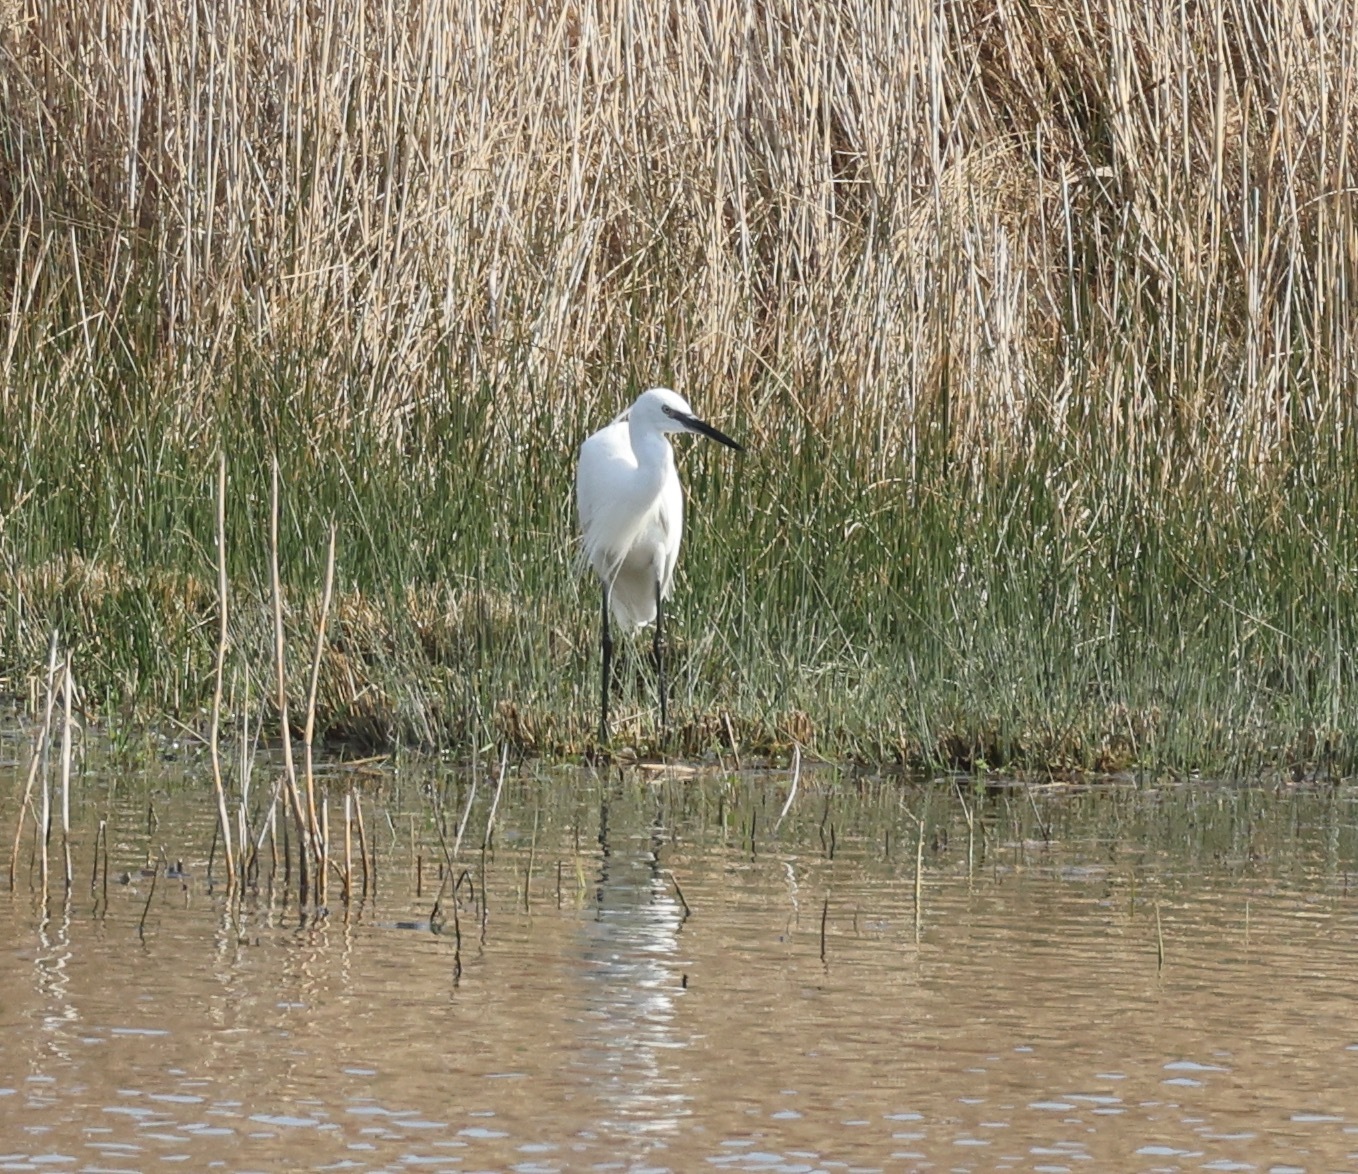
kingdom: Animalia
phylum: Chordata
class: Aves
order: Pelecaniformes
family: Ardeidae
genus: Egretta
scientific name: Egretta garzetta
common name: Little egret
